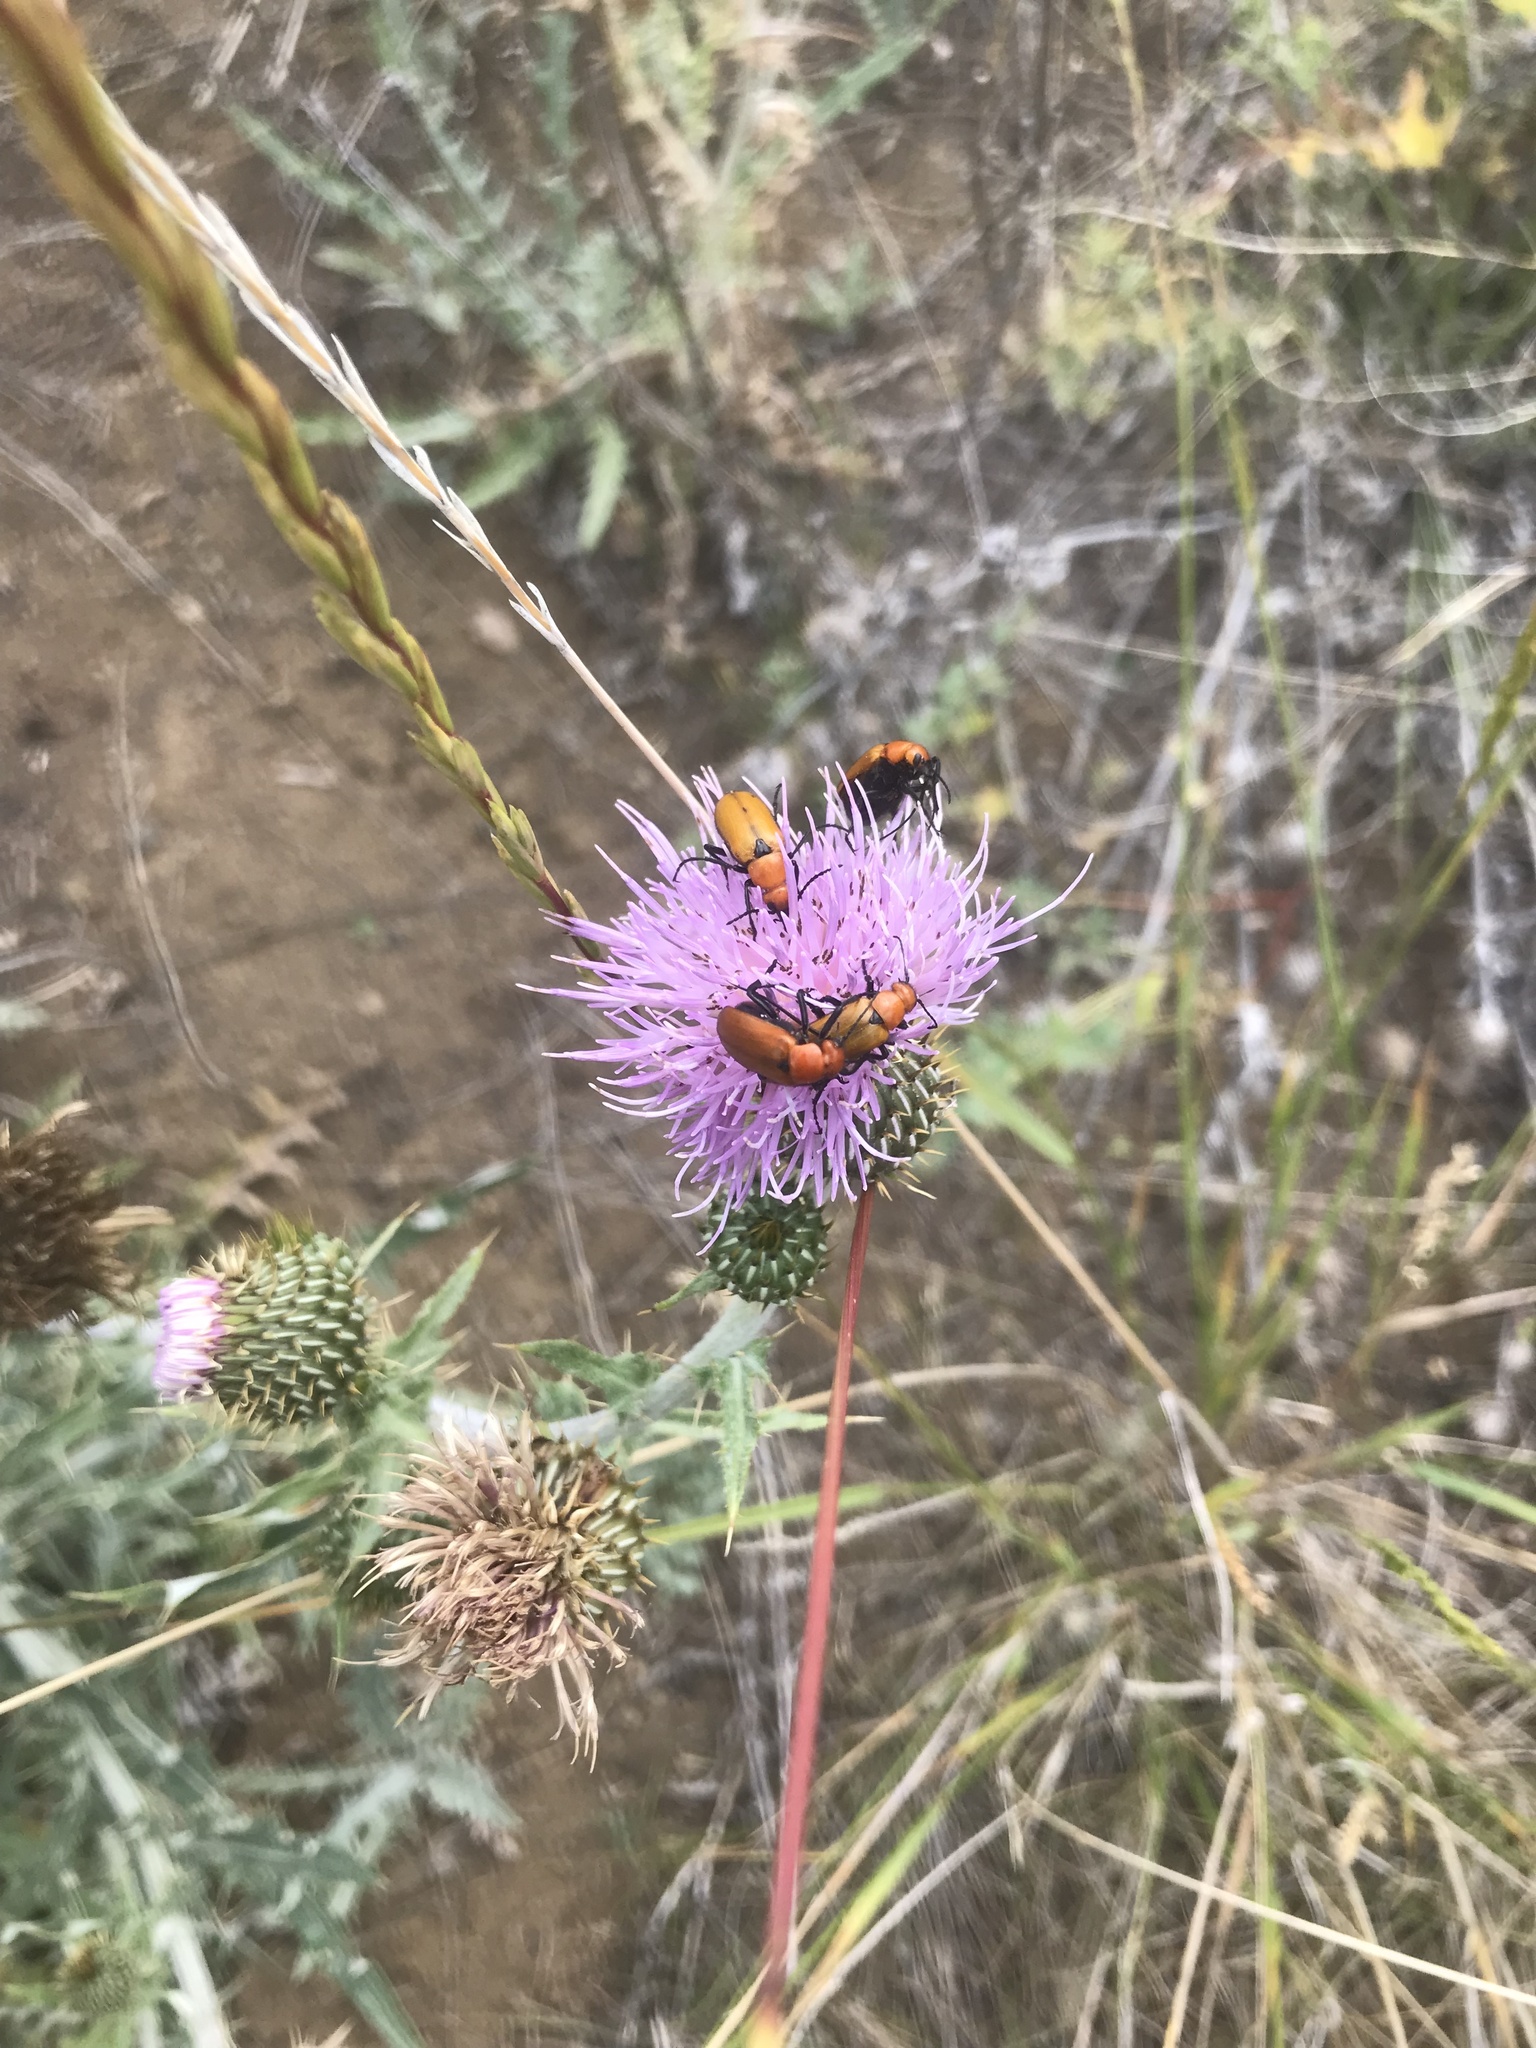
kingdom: Animalia
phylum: Arthropoda
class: Insecta
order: Coleoptera
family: Meloidae
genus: Nemognatha
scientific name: Nemognatha lutea
